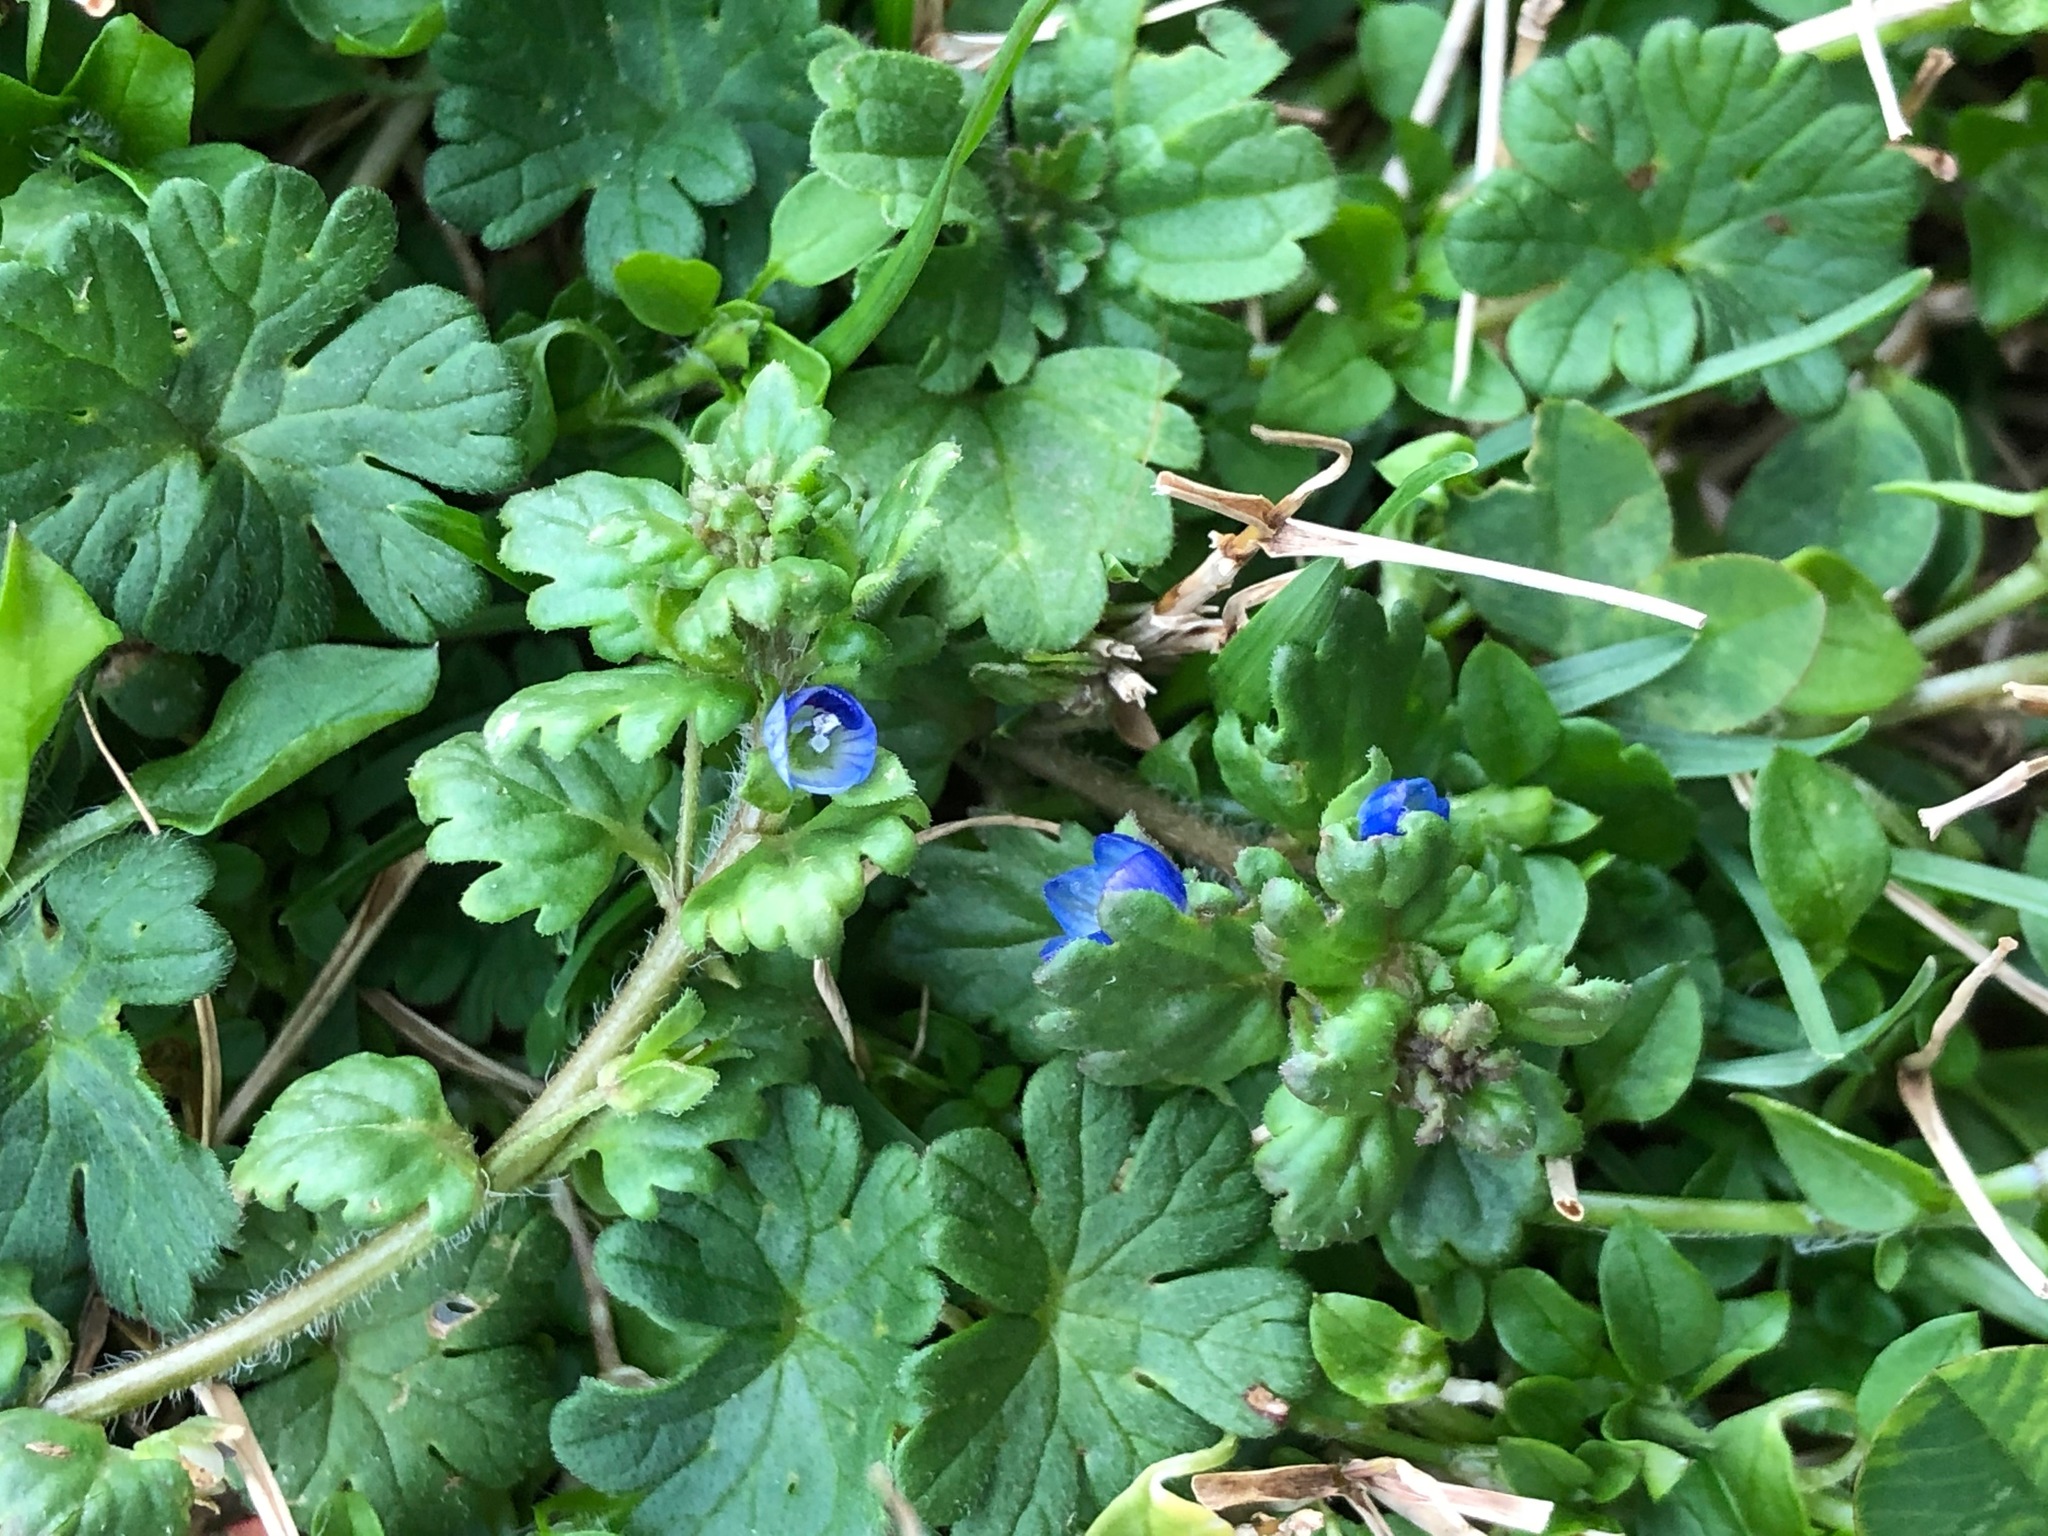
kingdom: Plantae
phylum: Tracheophyta
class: Magnoliopsida
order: Lamiales
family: Plantaginaceae
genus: Veronica
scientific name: Veronica polita
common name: Grey field-speedwell
